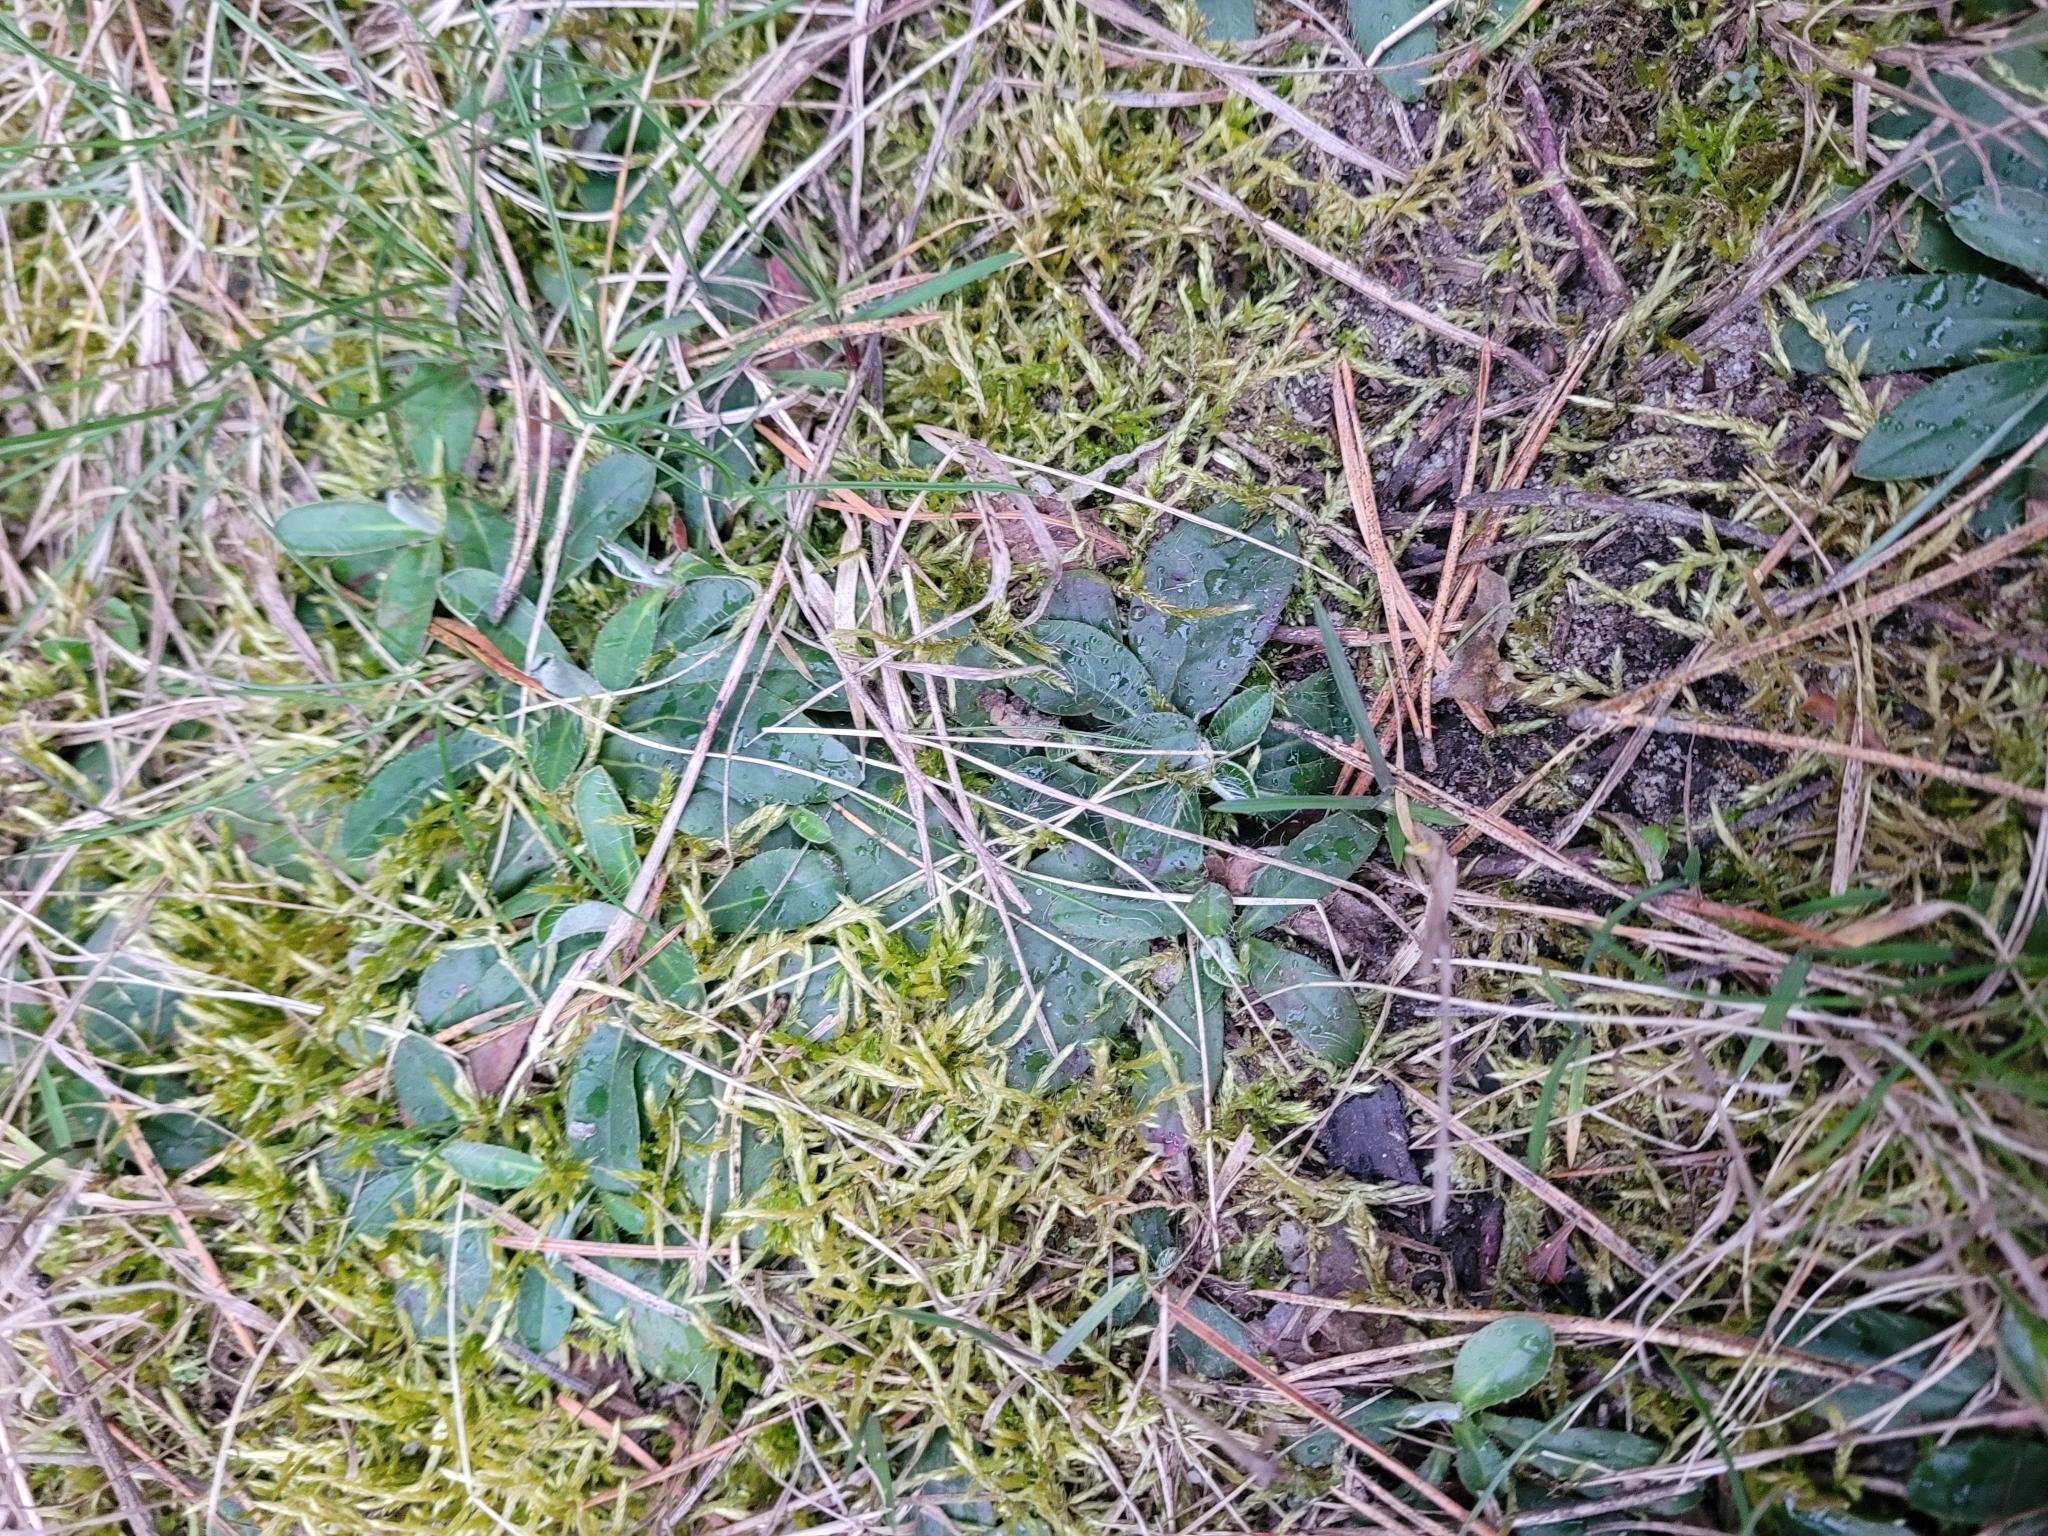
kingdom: Plantae
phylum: Tracheophyta
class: Magnoliopsida
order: Asterales
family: Asteraceae
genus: Pilosella
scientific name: Pilosella officinarum
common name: Mouse-ear hawkweed
